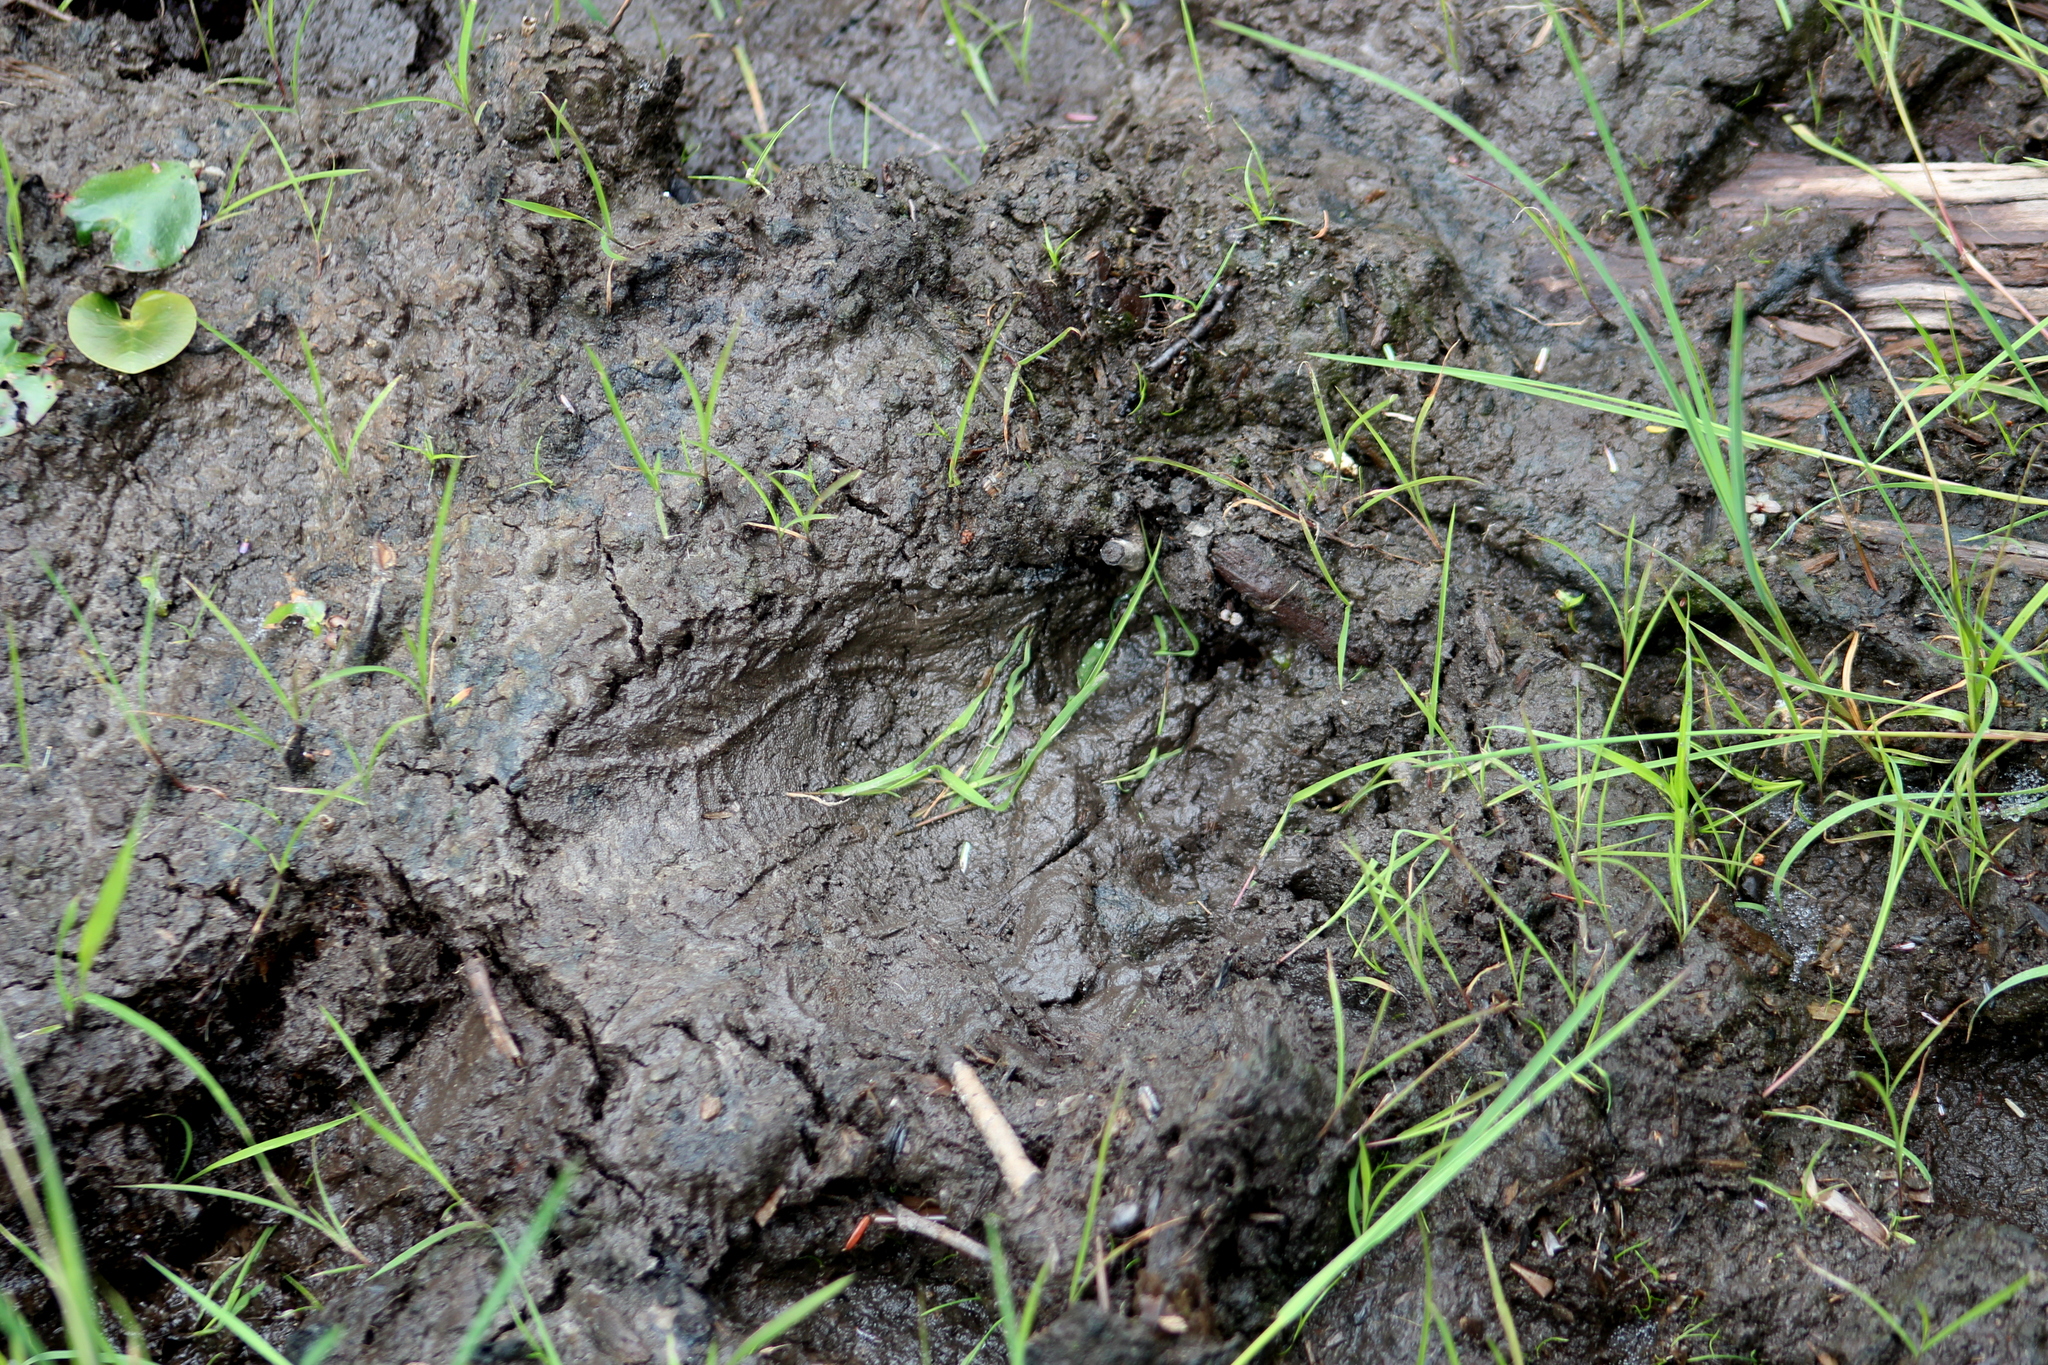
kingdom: Animalia
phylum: Chordata
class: Mammalia
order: Carnivora
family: Ursidae
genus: Ursus
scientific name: Ursus americanus
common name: American black bear
